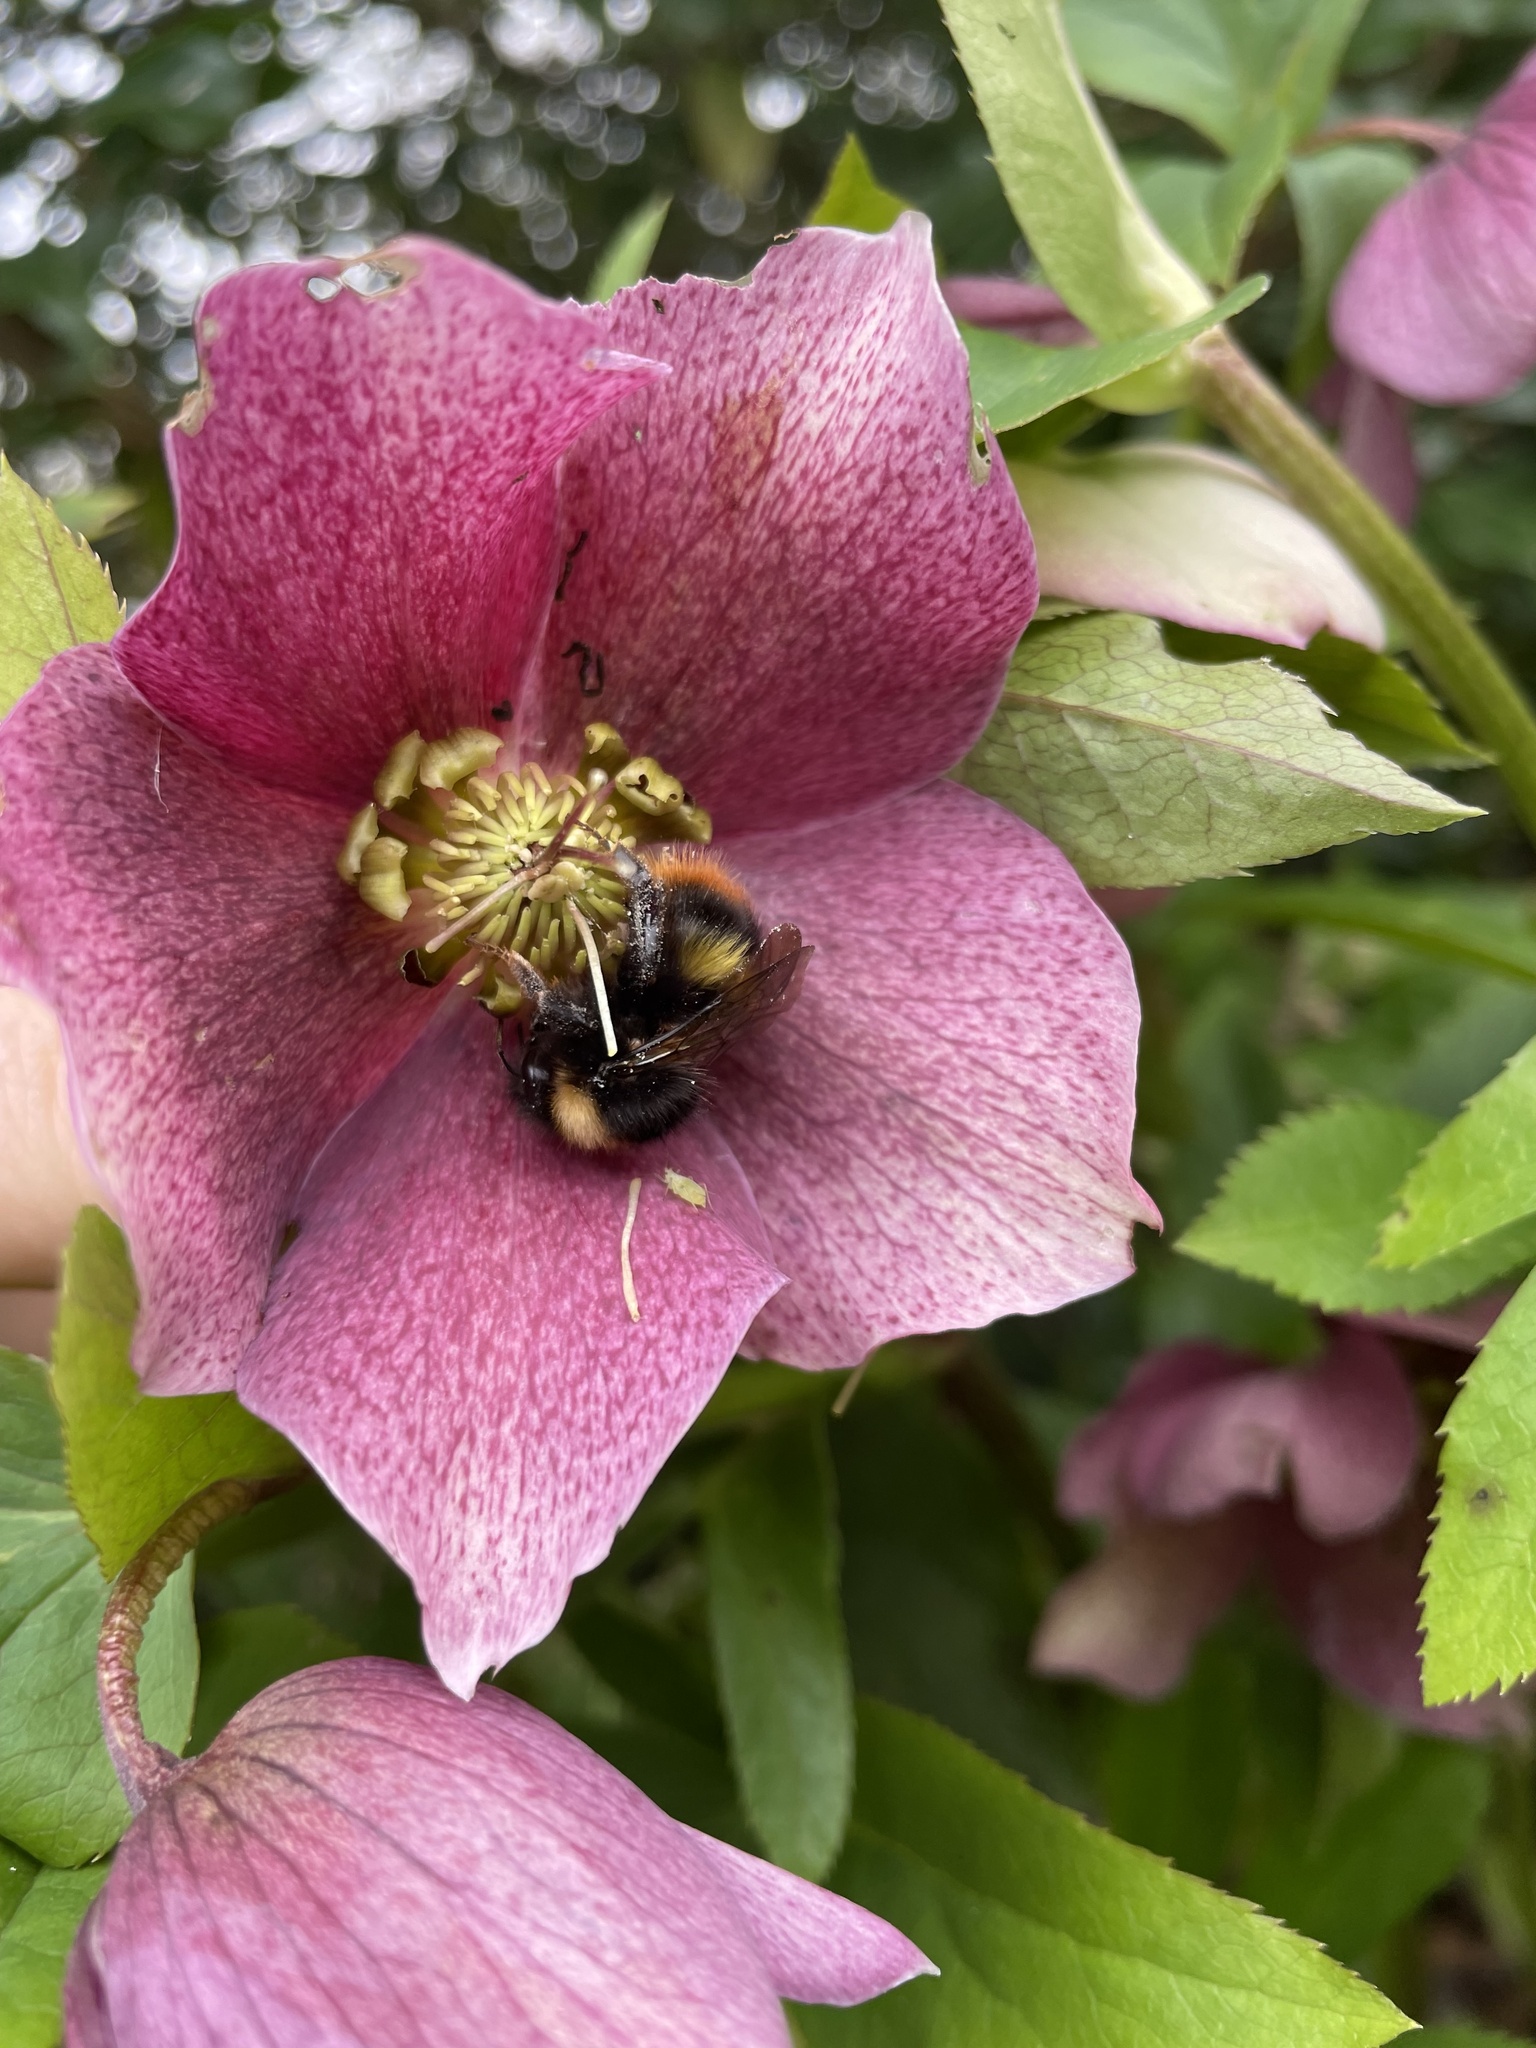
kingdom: Animalia
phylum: Arthropoda
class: Insecta
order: Hymenoptera
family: Apidae
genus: Bombus
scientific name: Bombus pratorum
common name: Early humble-bee
